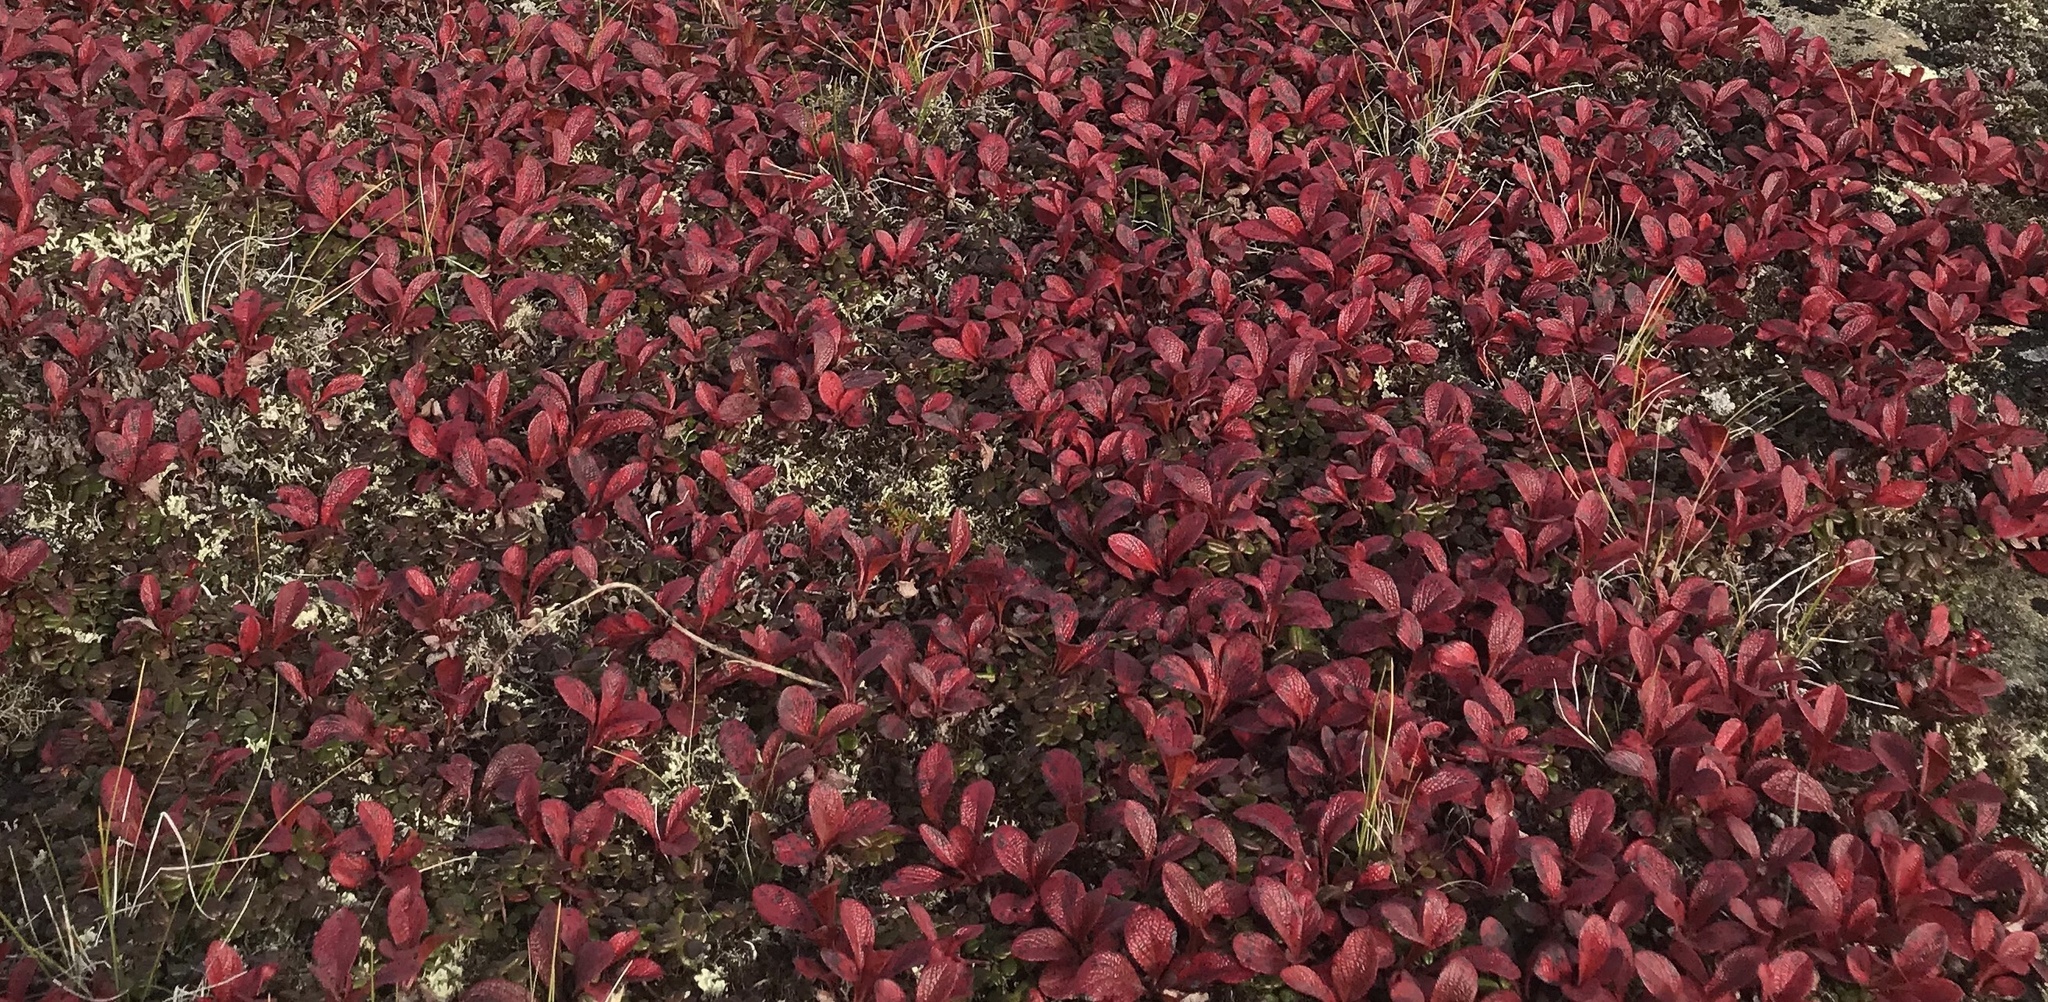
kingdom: Plantae
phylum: Tracheophyta
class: Magnoliopsida
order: Ericales
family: Ericaceae
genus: Arctostaphylos
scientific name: Arctostaphylos rubra
